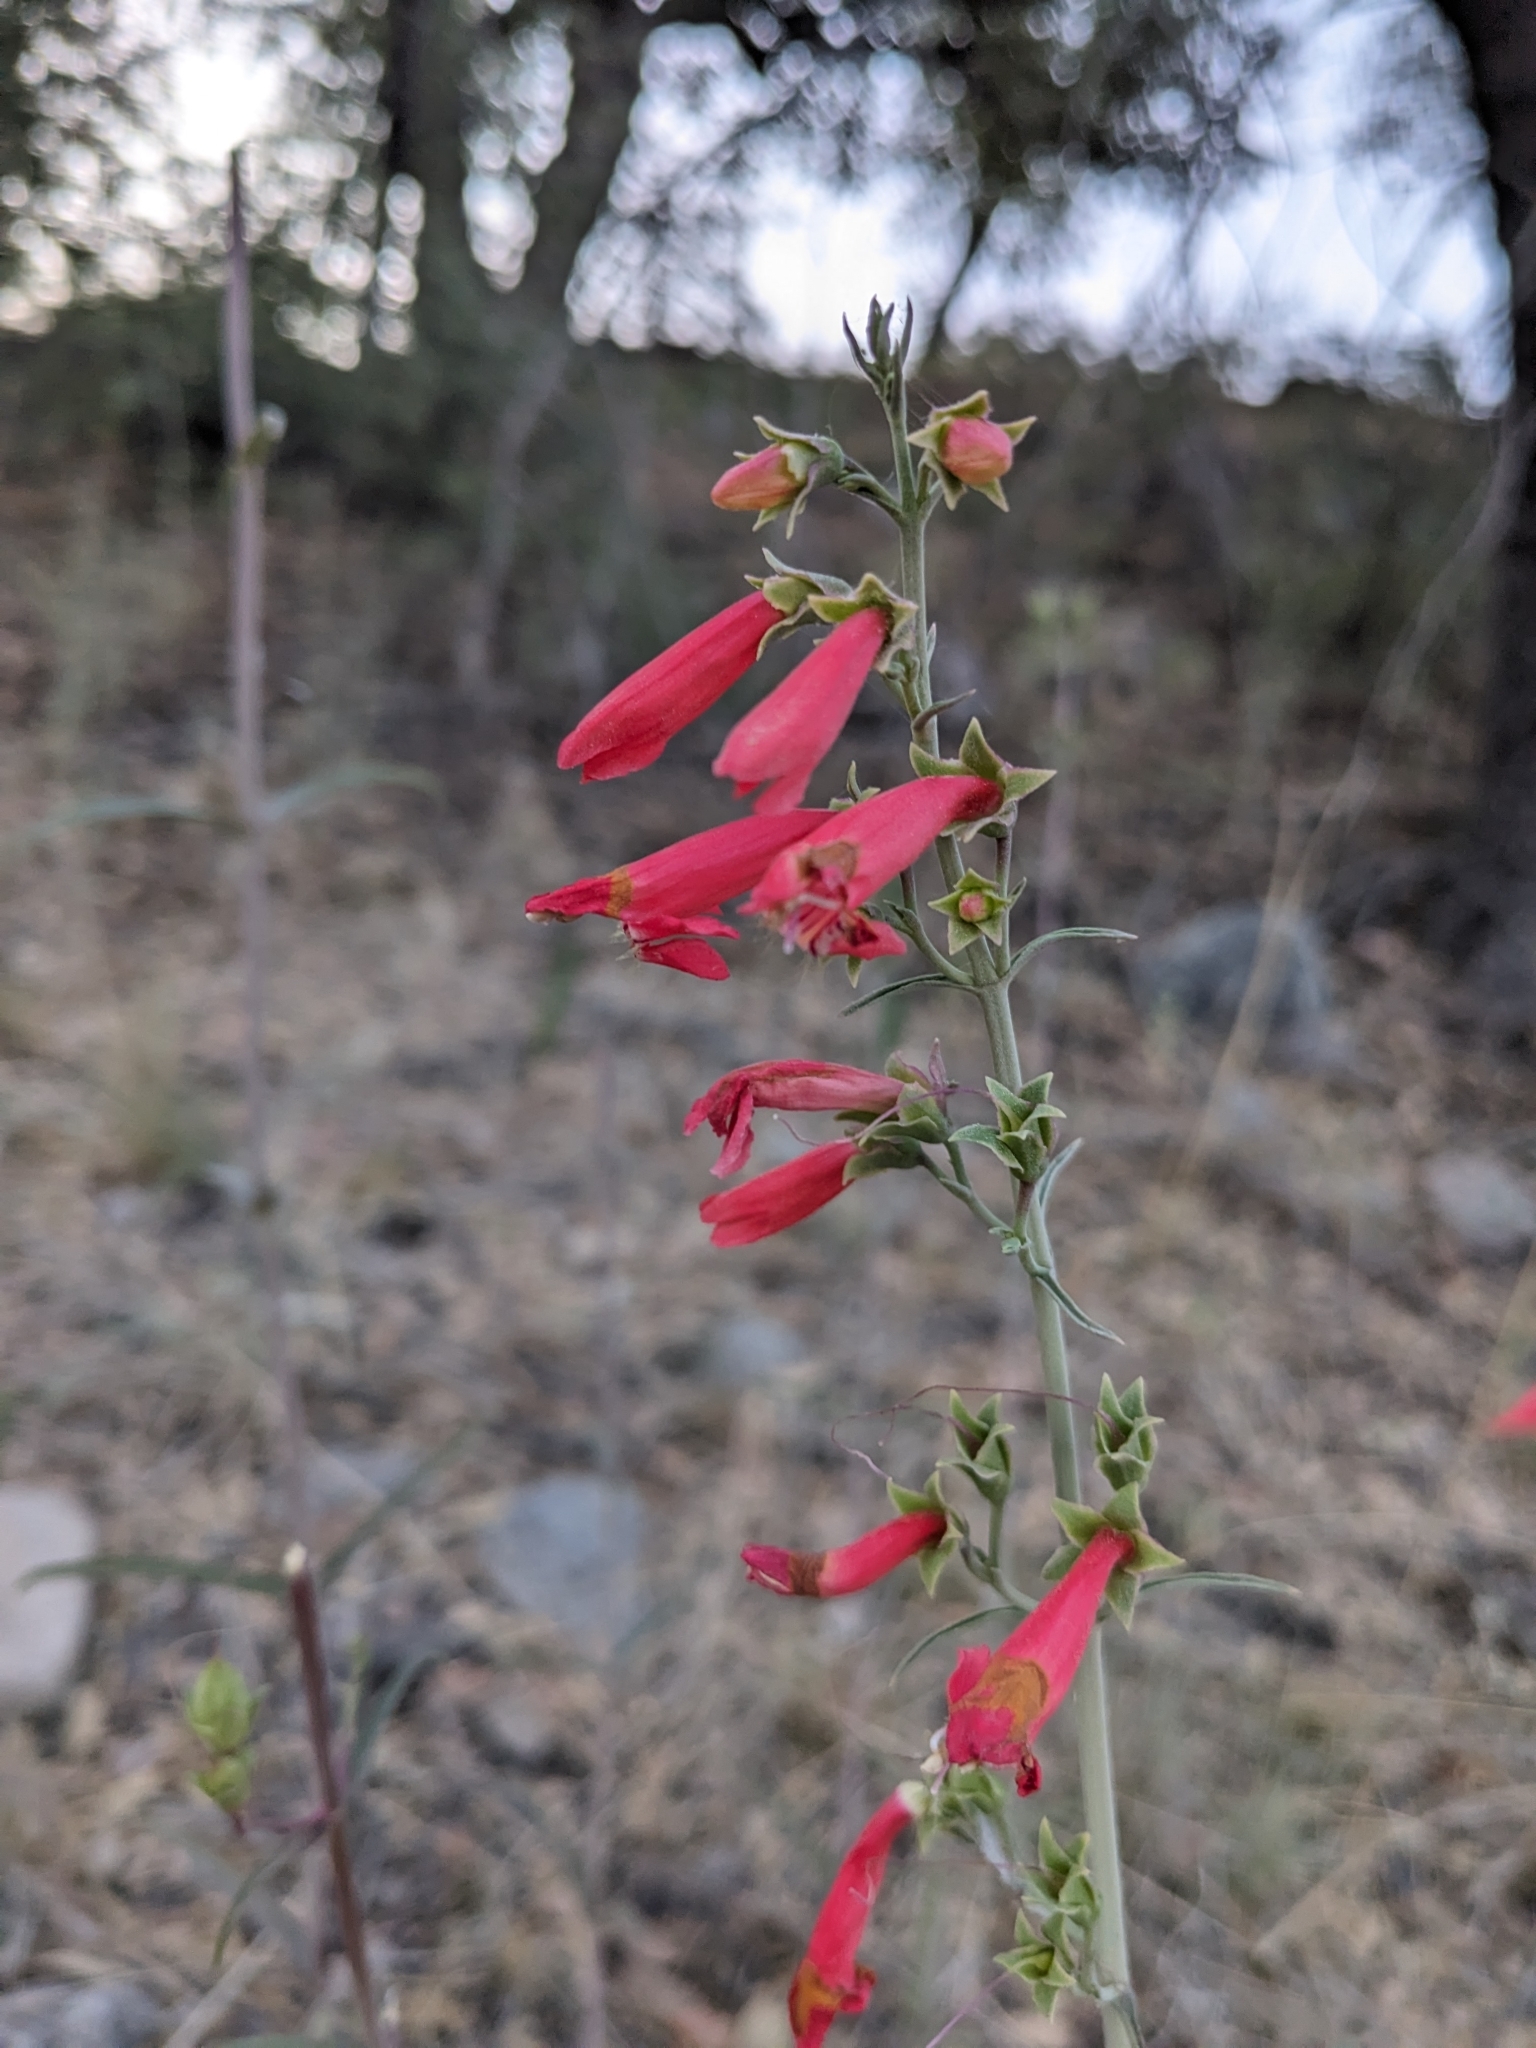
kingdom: Plantae
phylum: Tracheophyta
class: Magnoliopsida
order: Lamiales
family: Plantaginaceae
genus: Penstemon
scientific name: Penstemon barbatus
